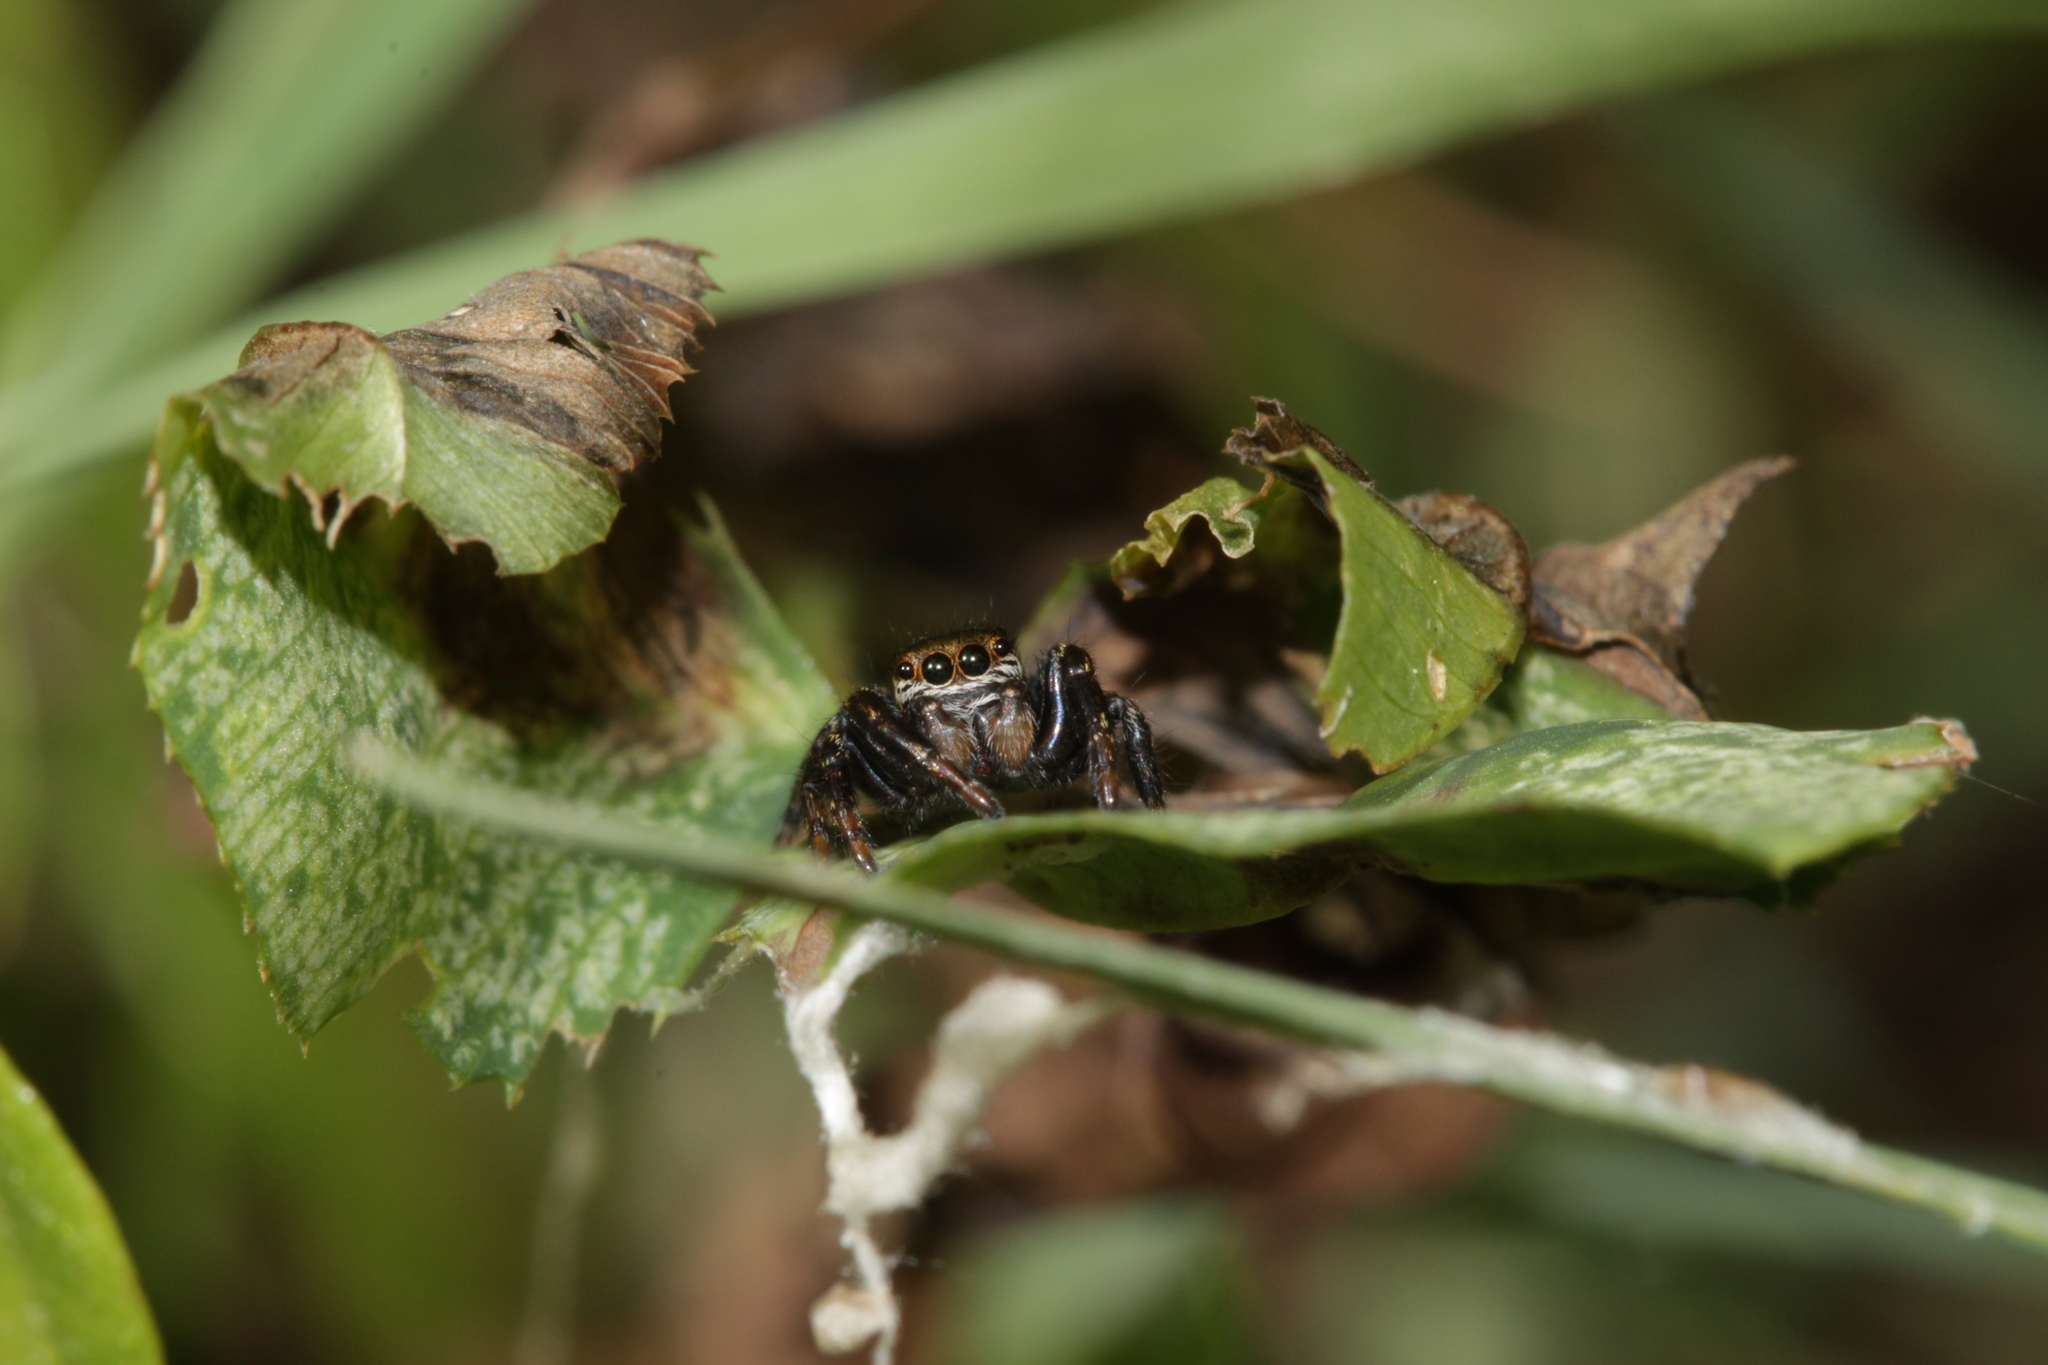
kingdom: Animalia
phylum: Arthropoda
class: Arachnida
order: Araneae
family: Salticidae
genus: Evarcha
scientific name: Evarcha arcuata
